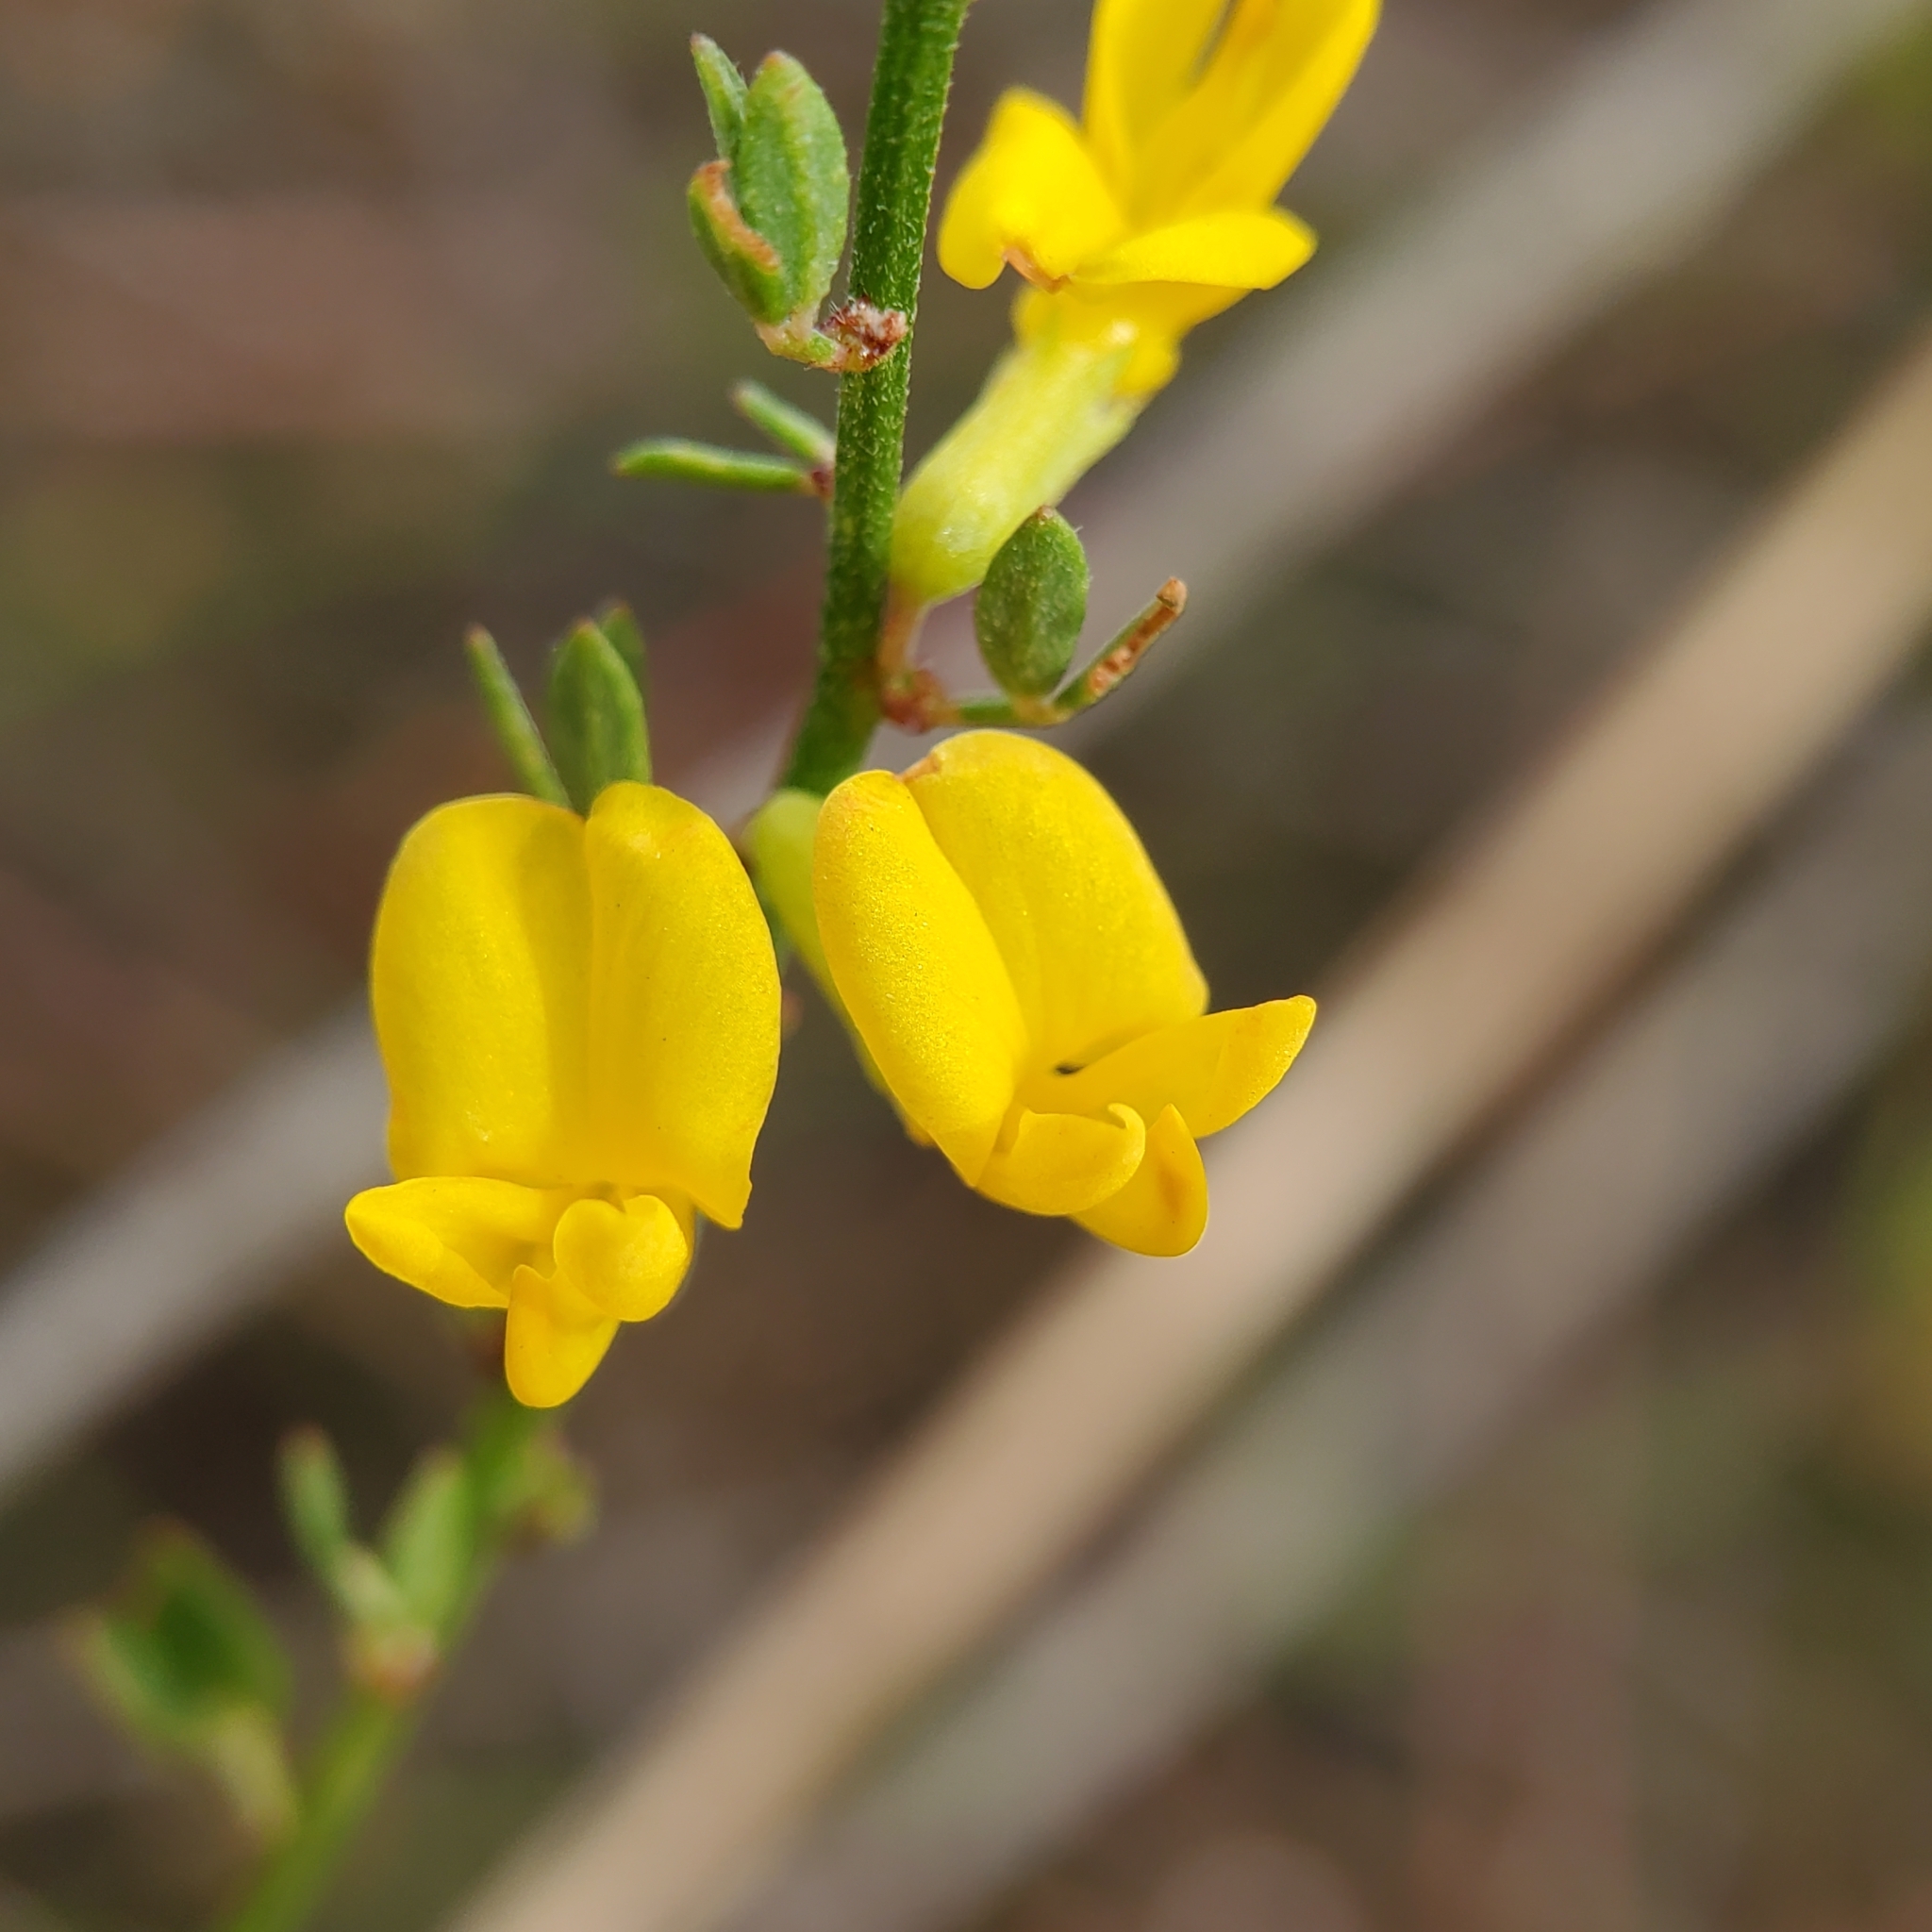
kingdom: Plantae
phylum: Tracheophyta
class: Magnoliopsida
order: Fabales
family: Fabaceae
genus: Acmispon
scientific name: Acmispon glaber
